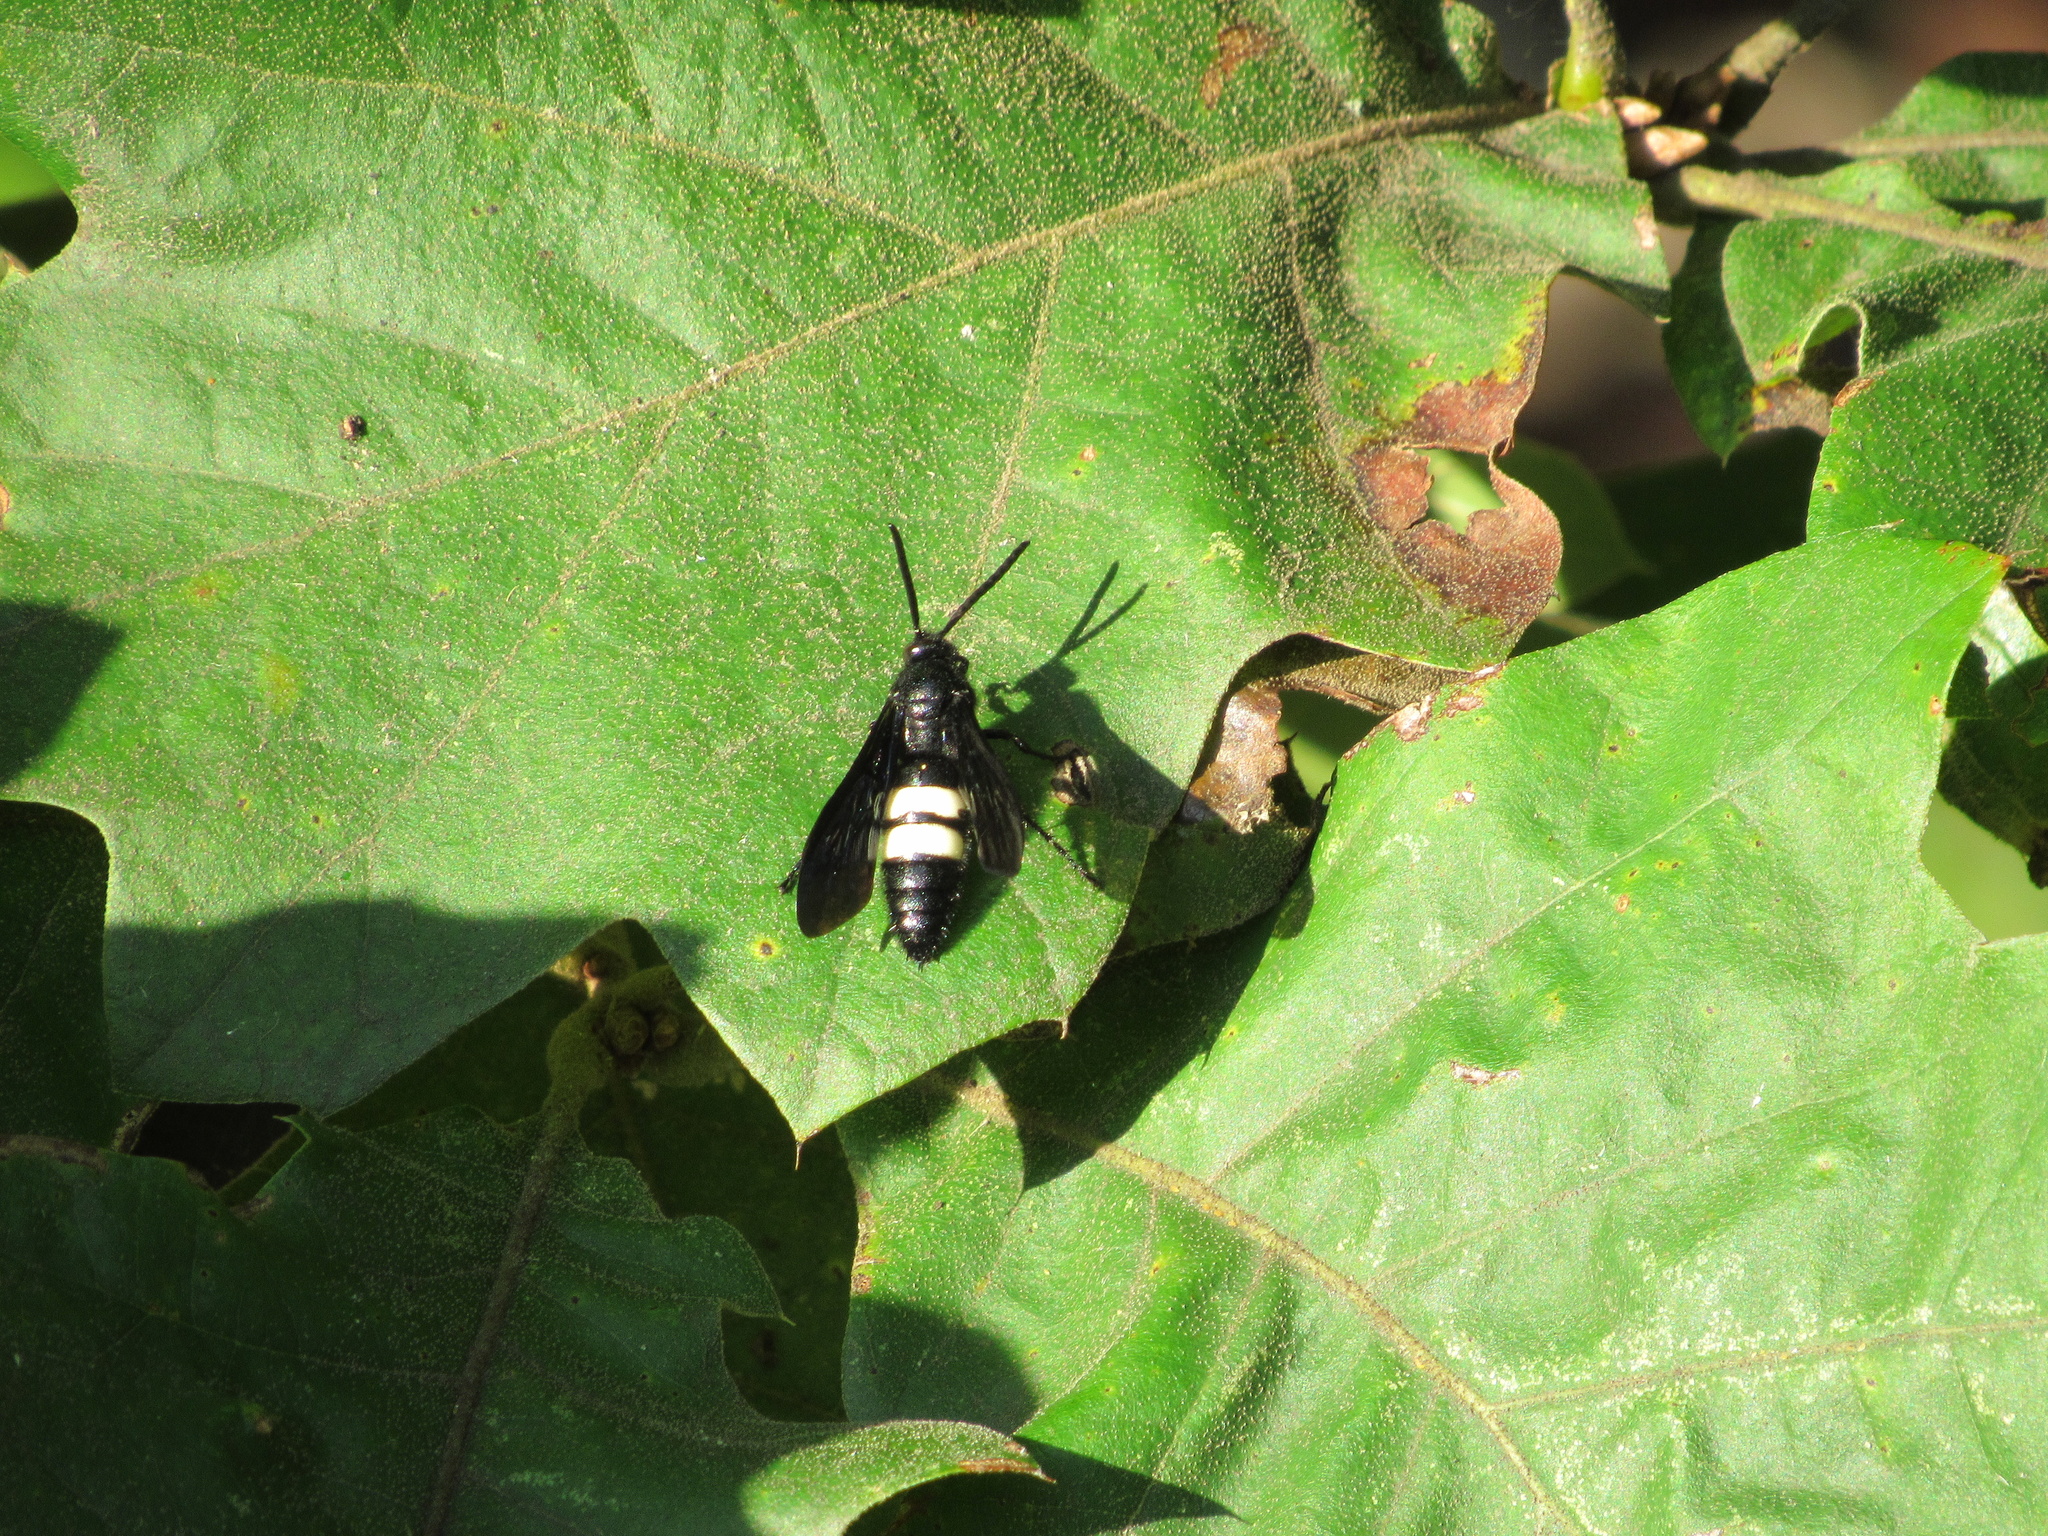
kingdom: Animalia
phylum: Arthropoda
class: Insecta
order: Hymenoptera
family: Scoliidae
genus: Scolia
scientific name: Scolia bicincta
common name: Double-banded scoliid wasp
